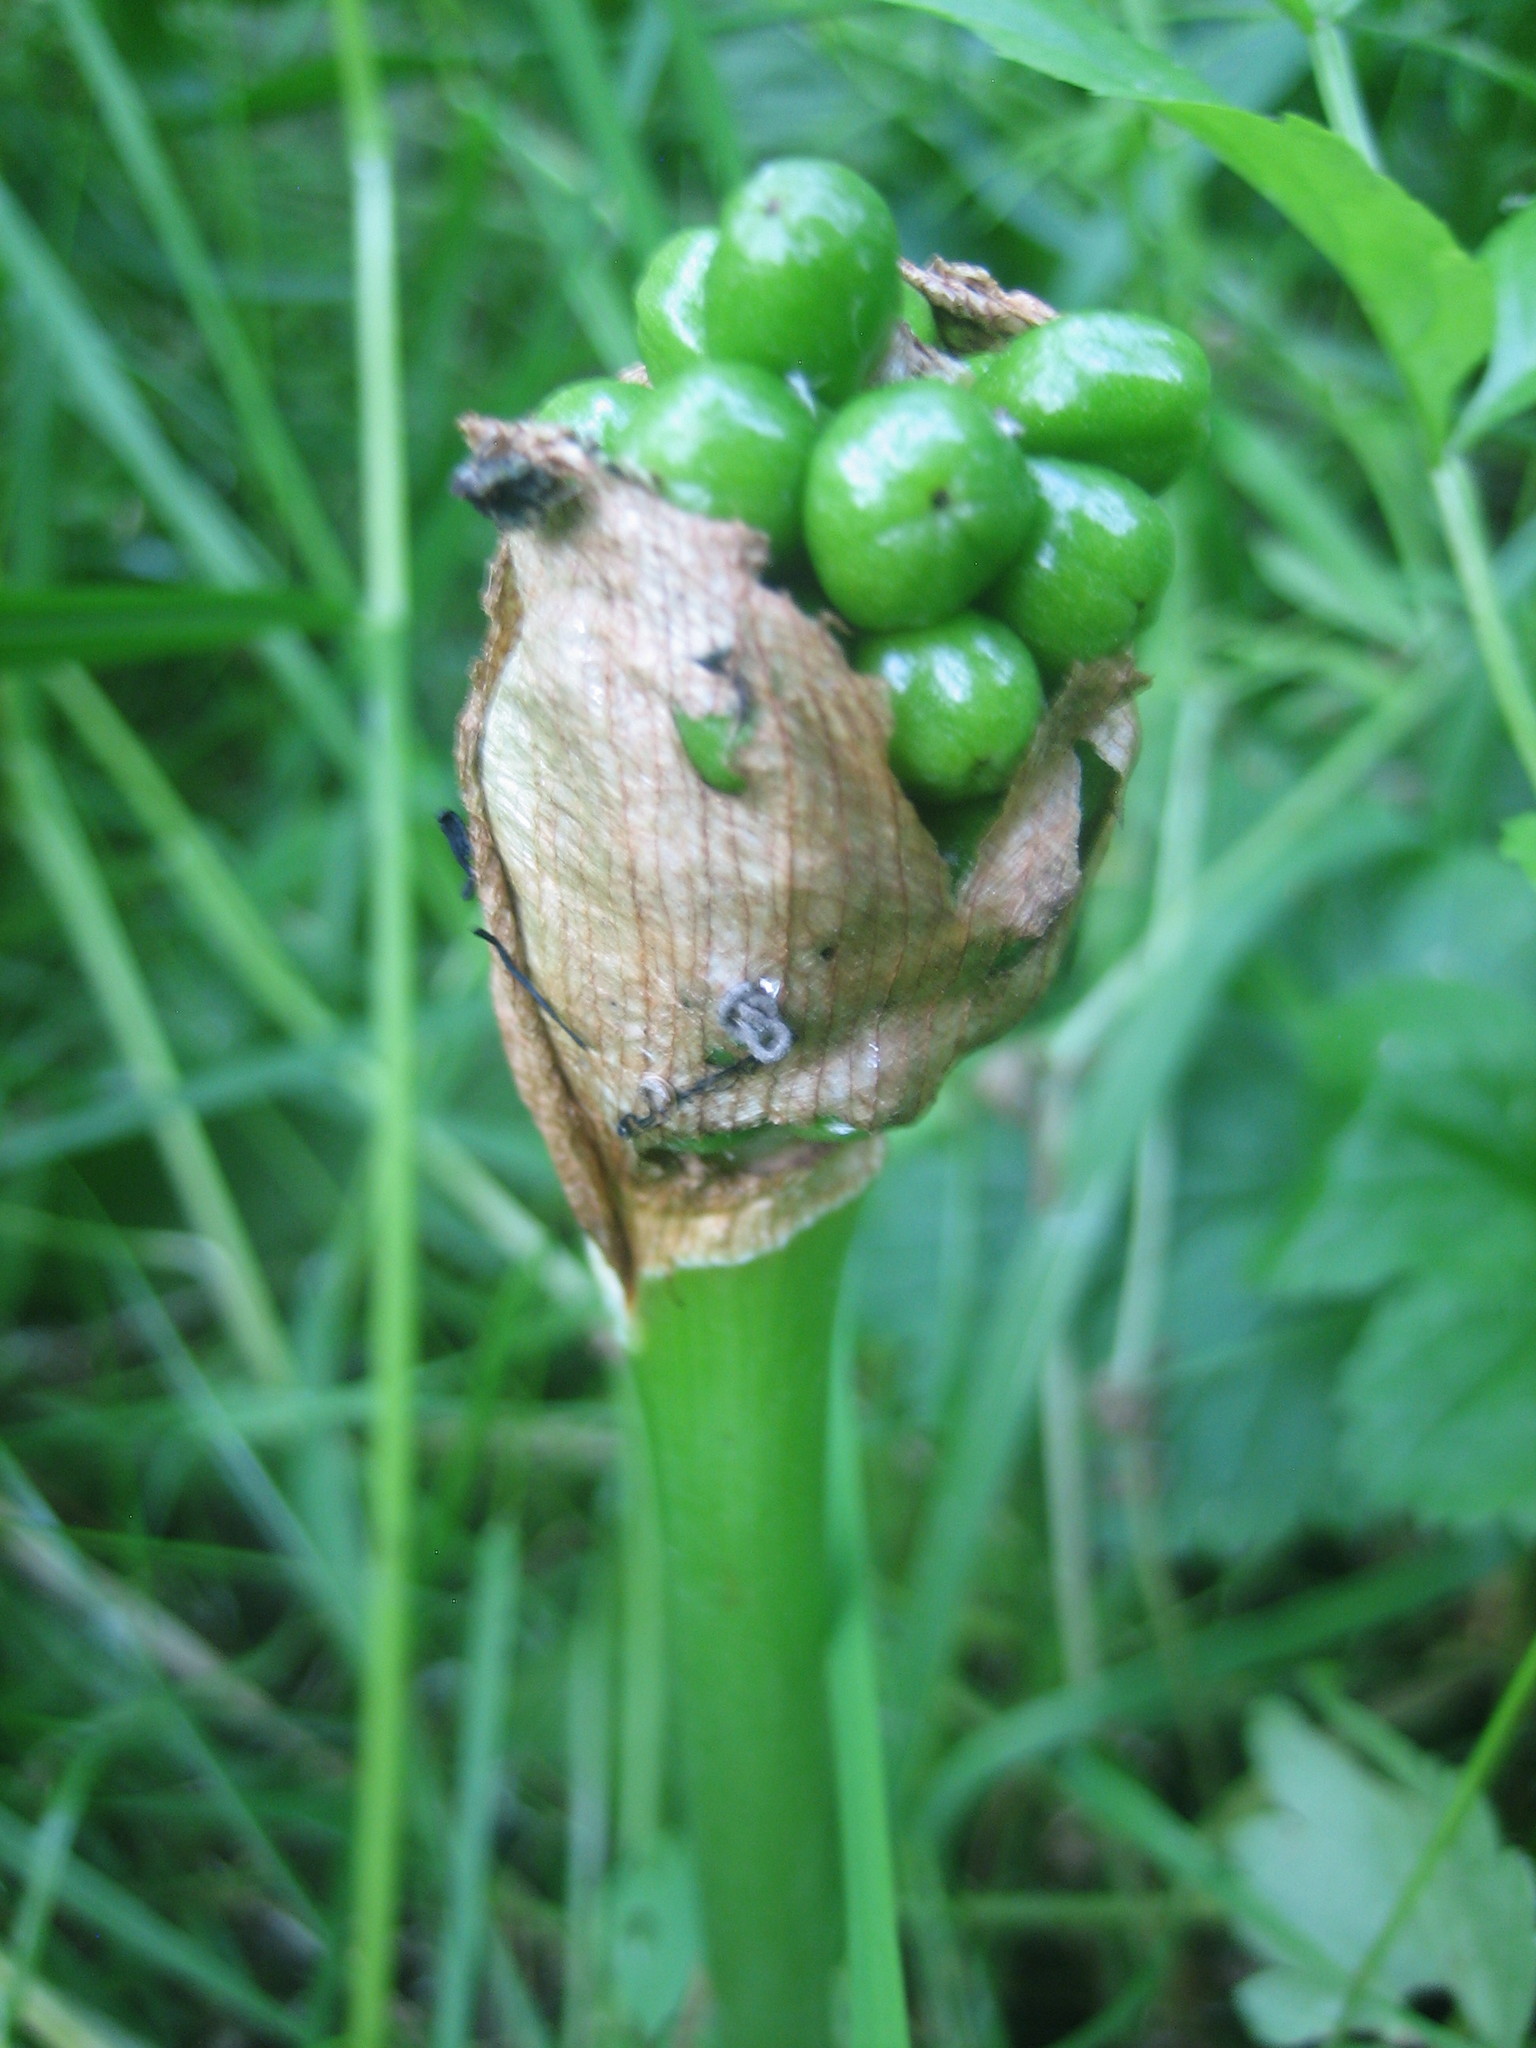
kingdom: Plantae
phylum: Tracheophyta
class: Liliopsida
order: Alismatales
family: Araceae
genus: Arum
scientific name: Arum maculatum
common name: Lords-and-ladies
